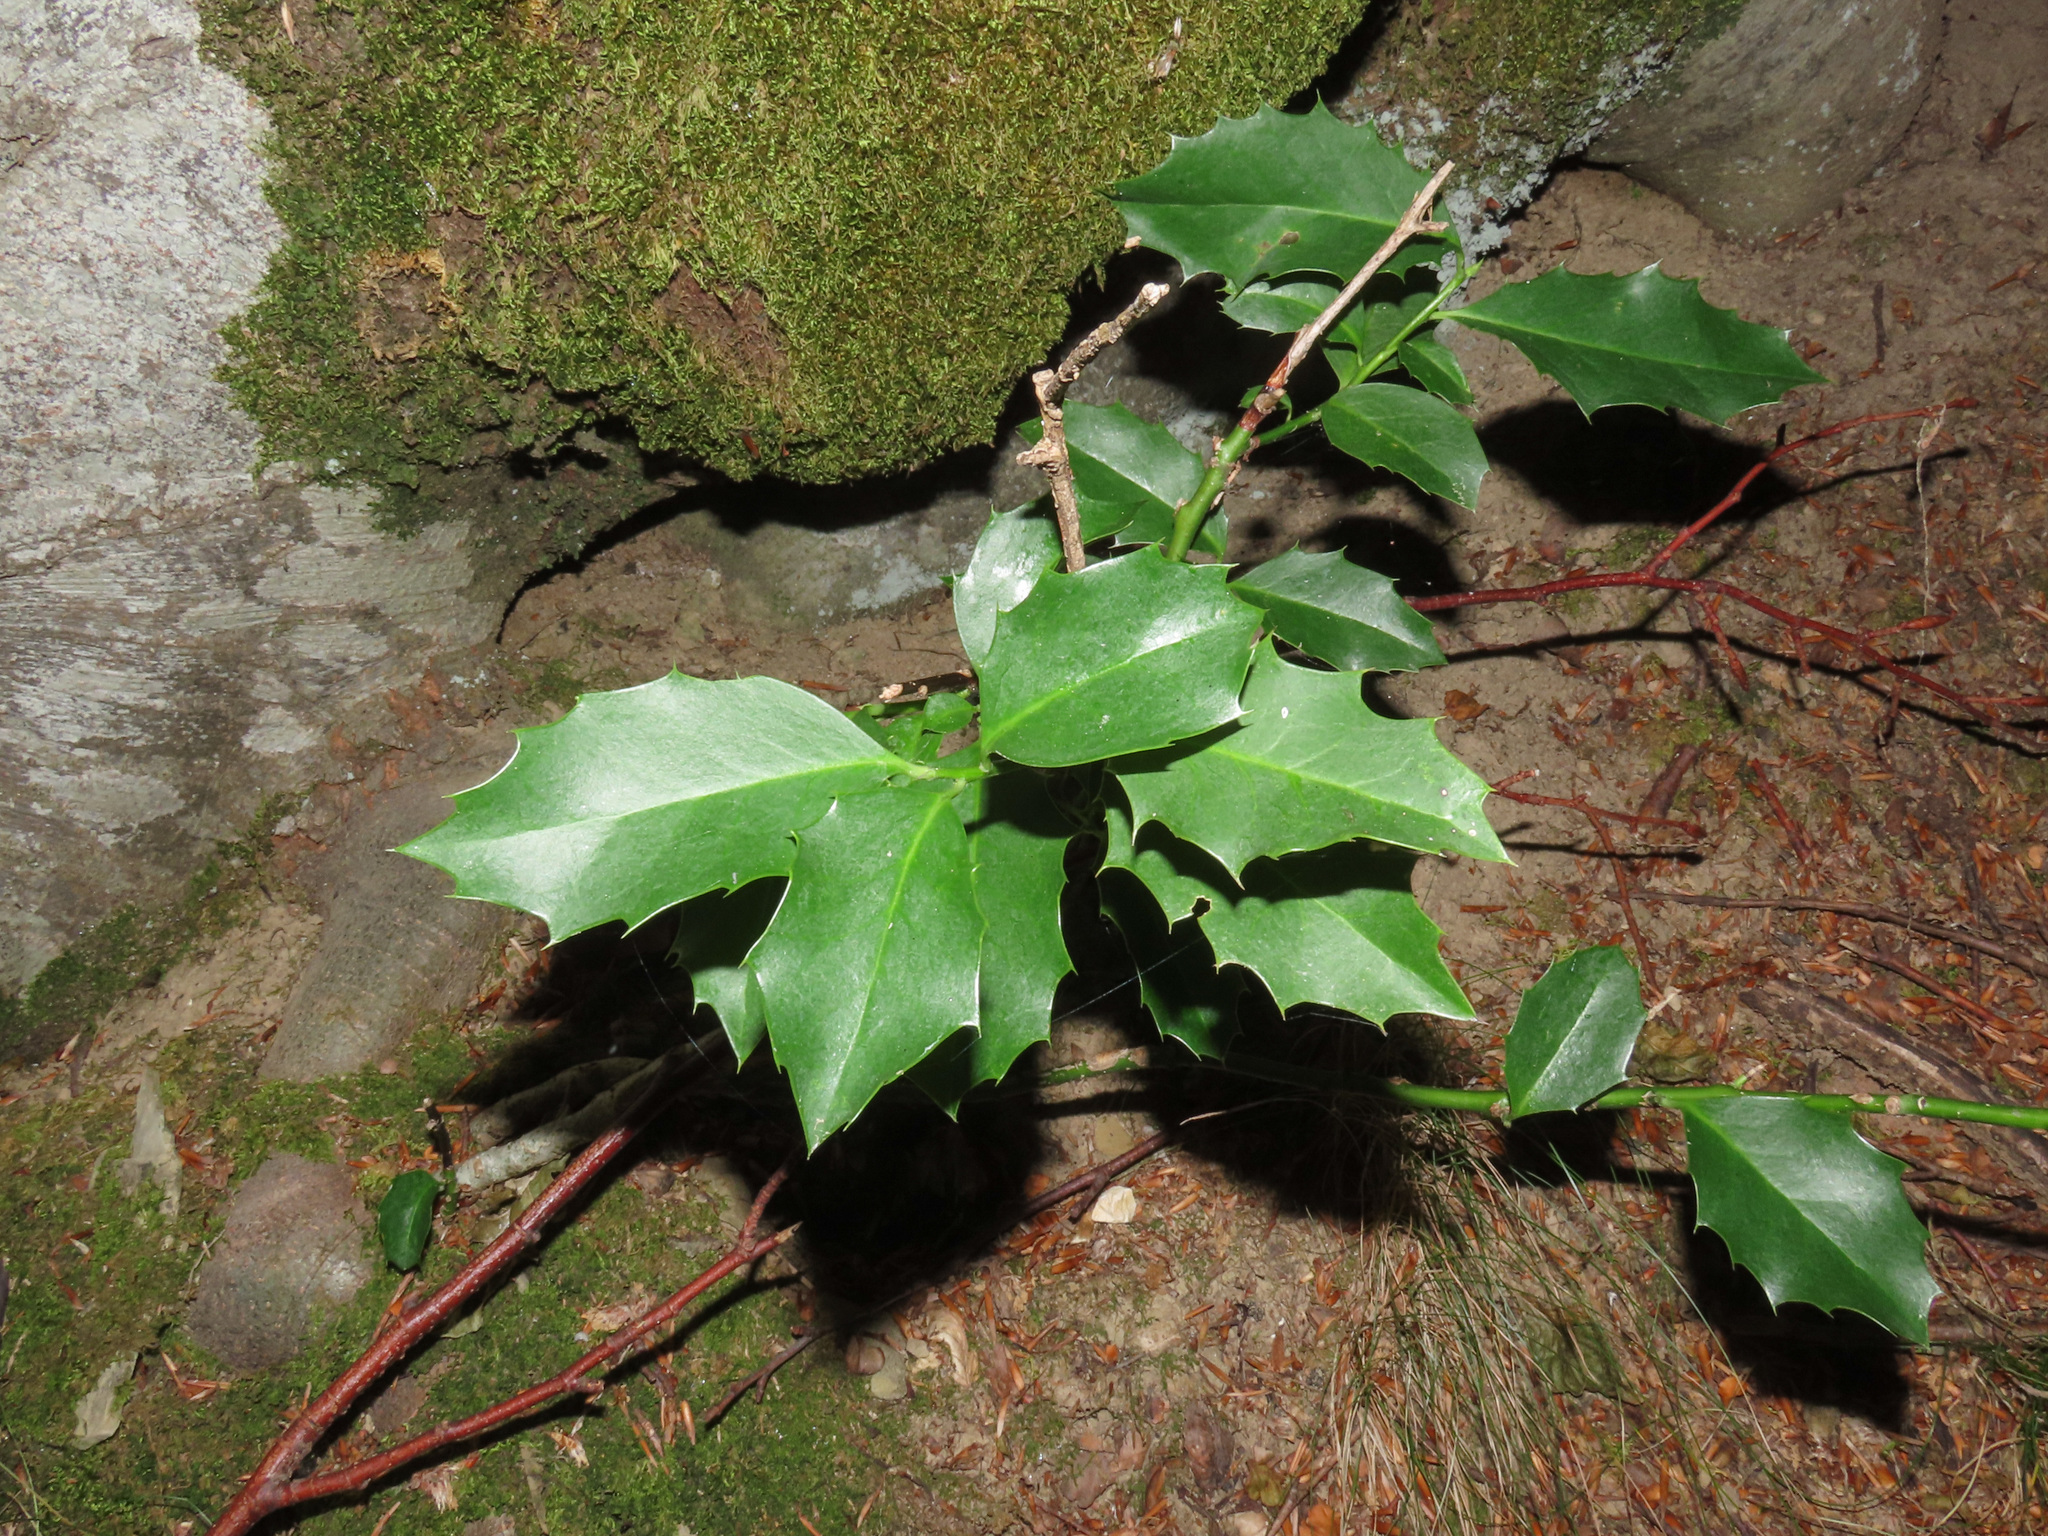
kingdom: Plantae
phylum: Tracheophyta
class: Magnoliopsida
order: Aquifoliales
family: Aquifoliaceae
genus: Ilex
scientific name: Ilex aquifolium
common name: English holly
